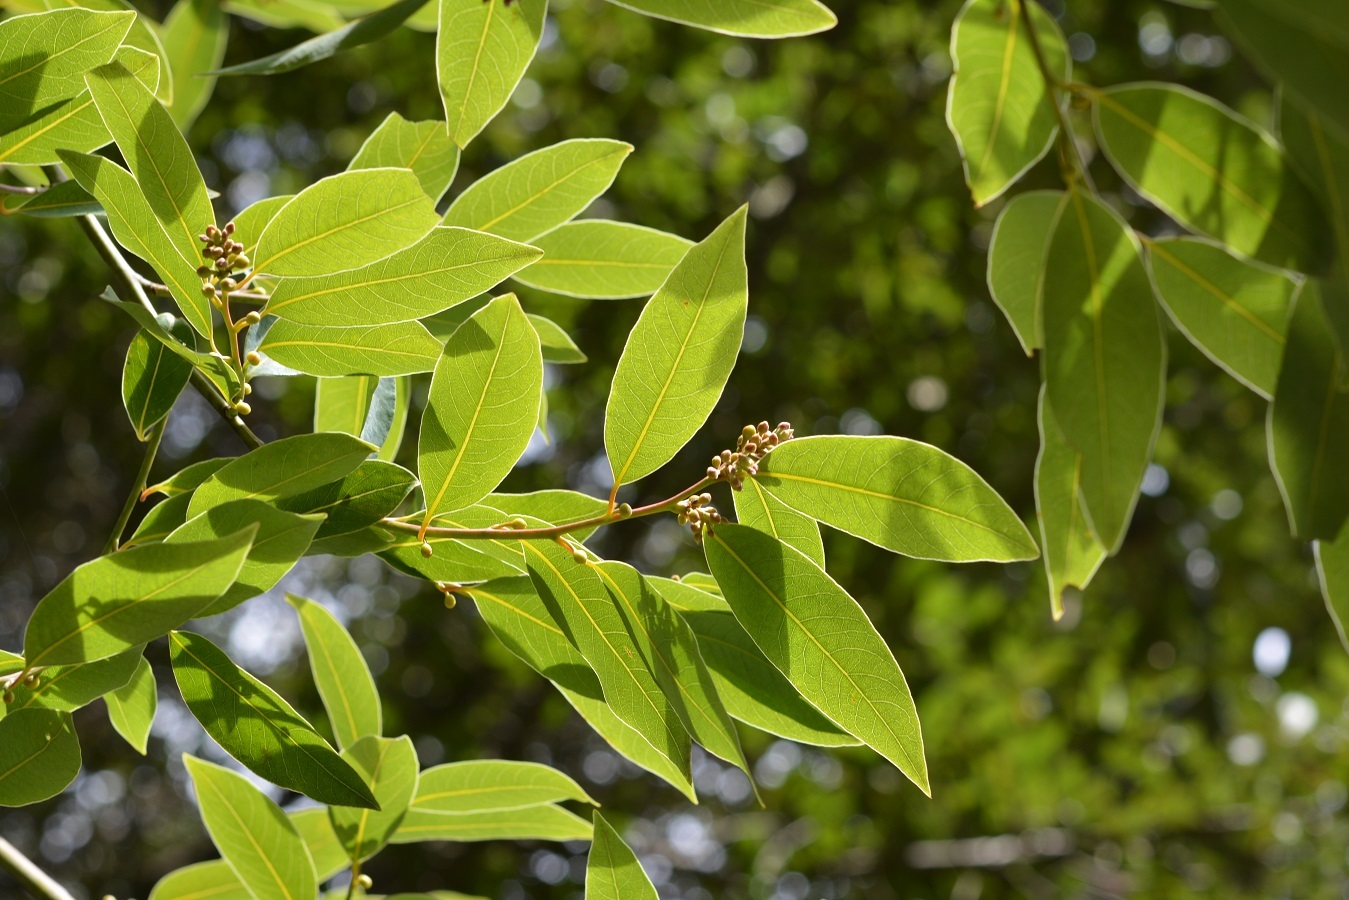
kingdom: Plantae
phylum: Tracheophyta
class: Magnoliopsida
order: Laurales
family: Lauraceae
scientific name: Lauraceae
